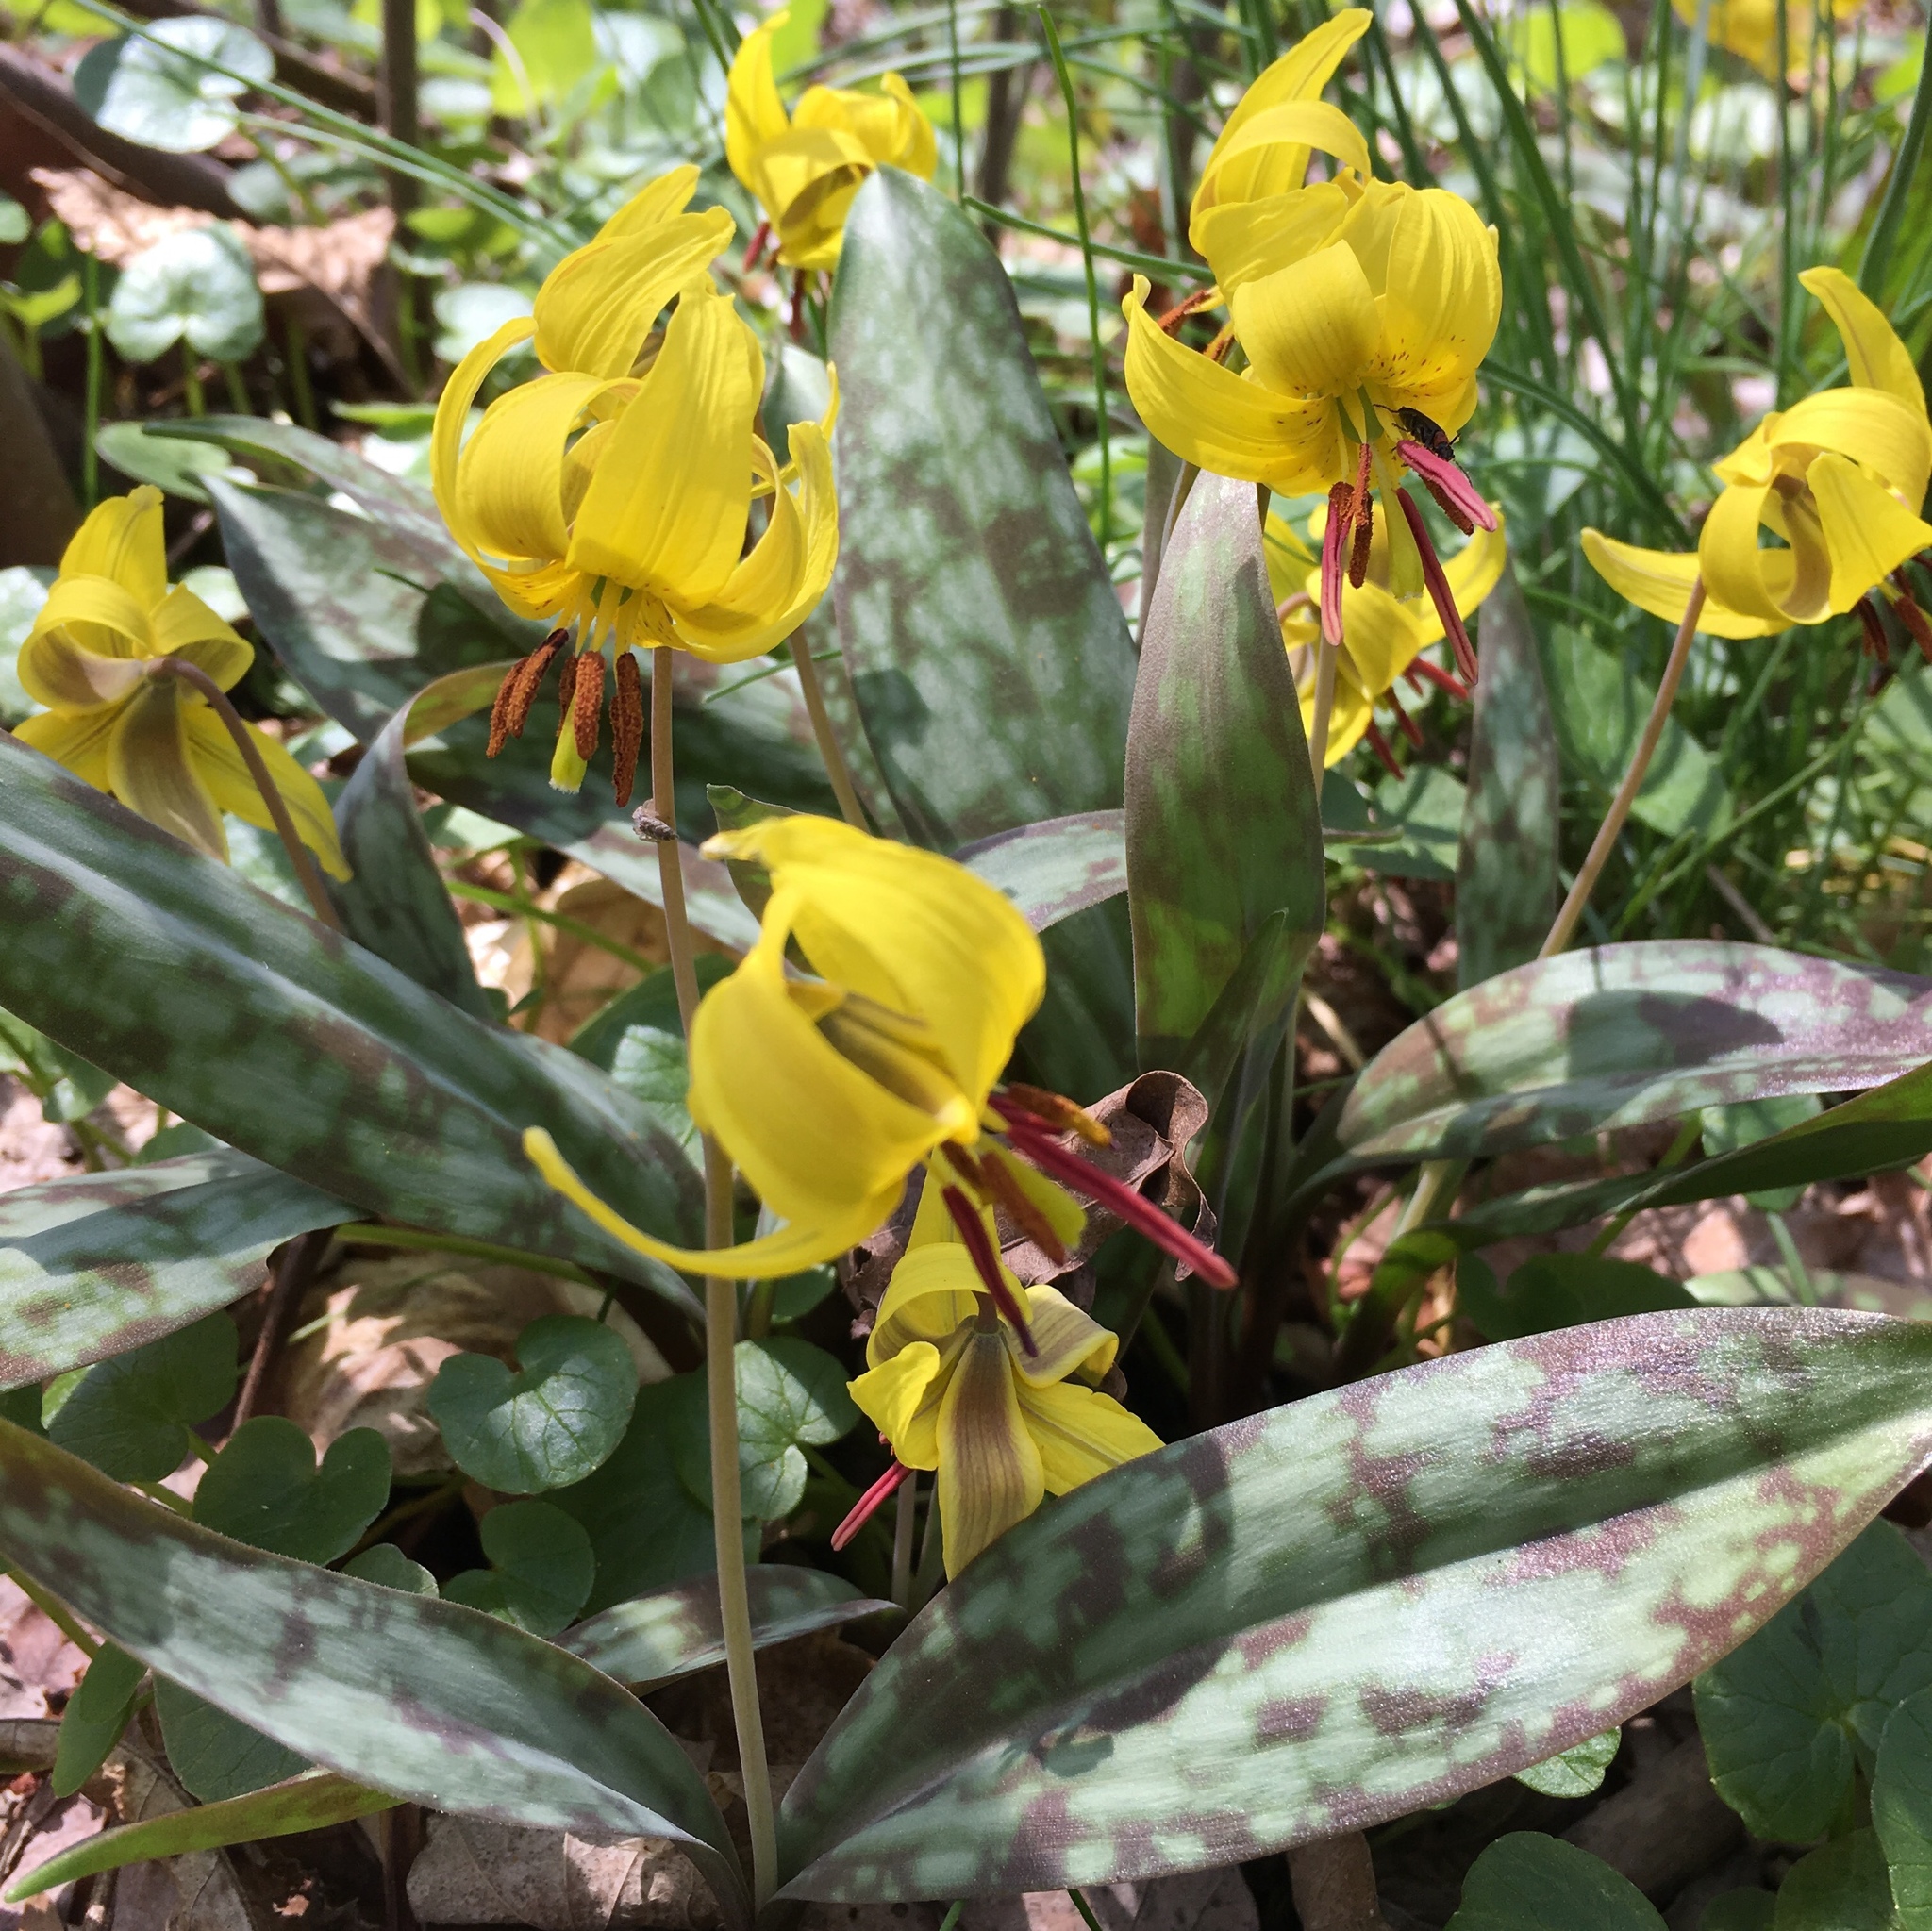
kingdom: Plantae
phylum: Tracheophyta
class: Liliopsida
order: Liliales
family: Liliaceae
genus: Erythronium
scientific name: Erythronium americanum
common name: Yellow adder's-tongue
